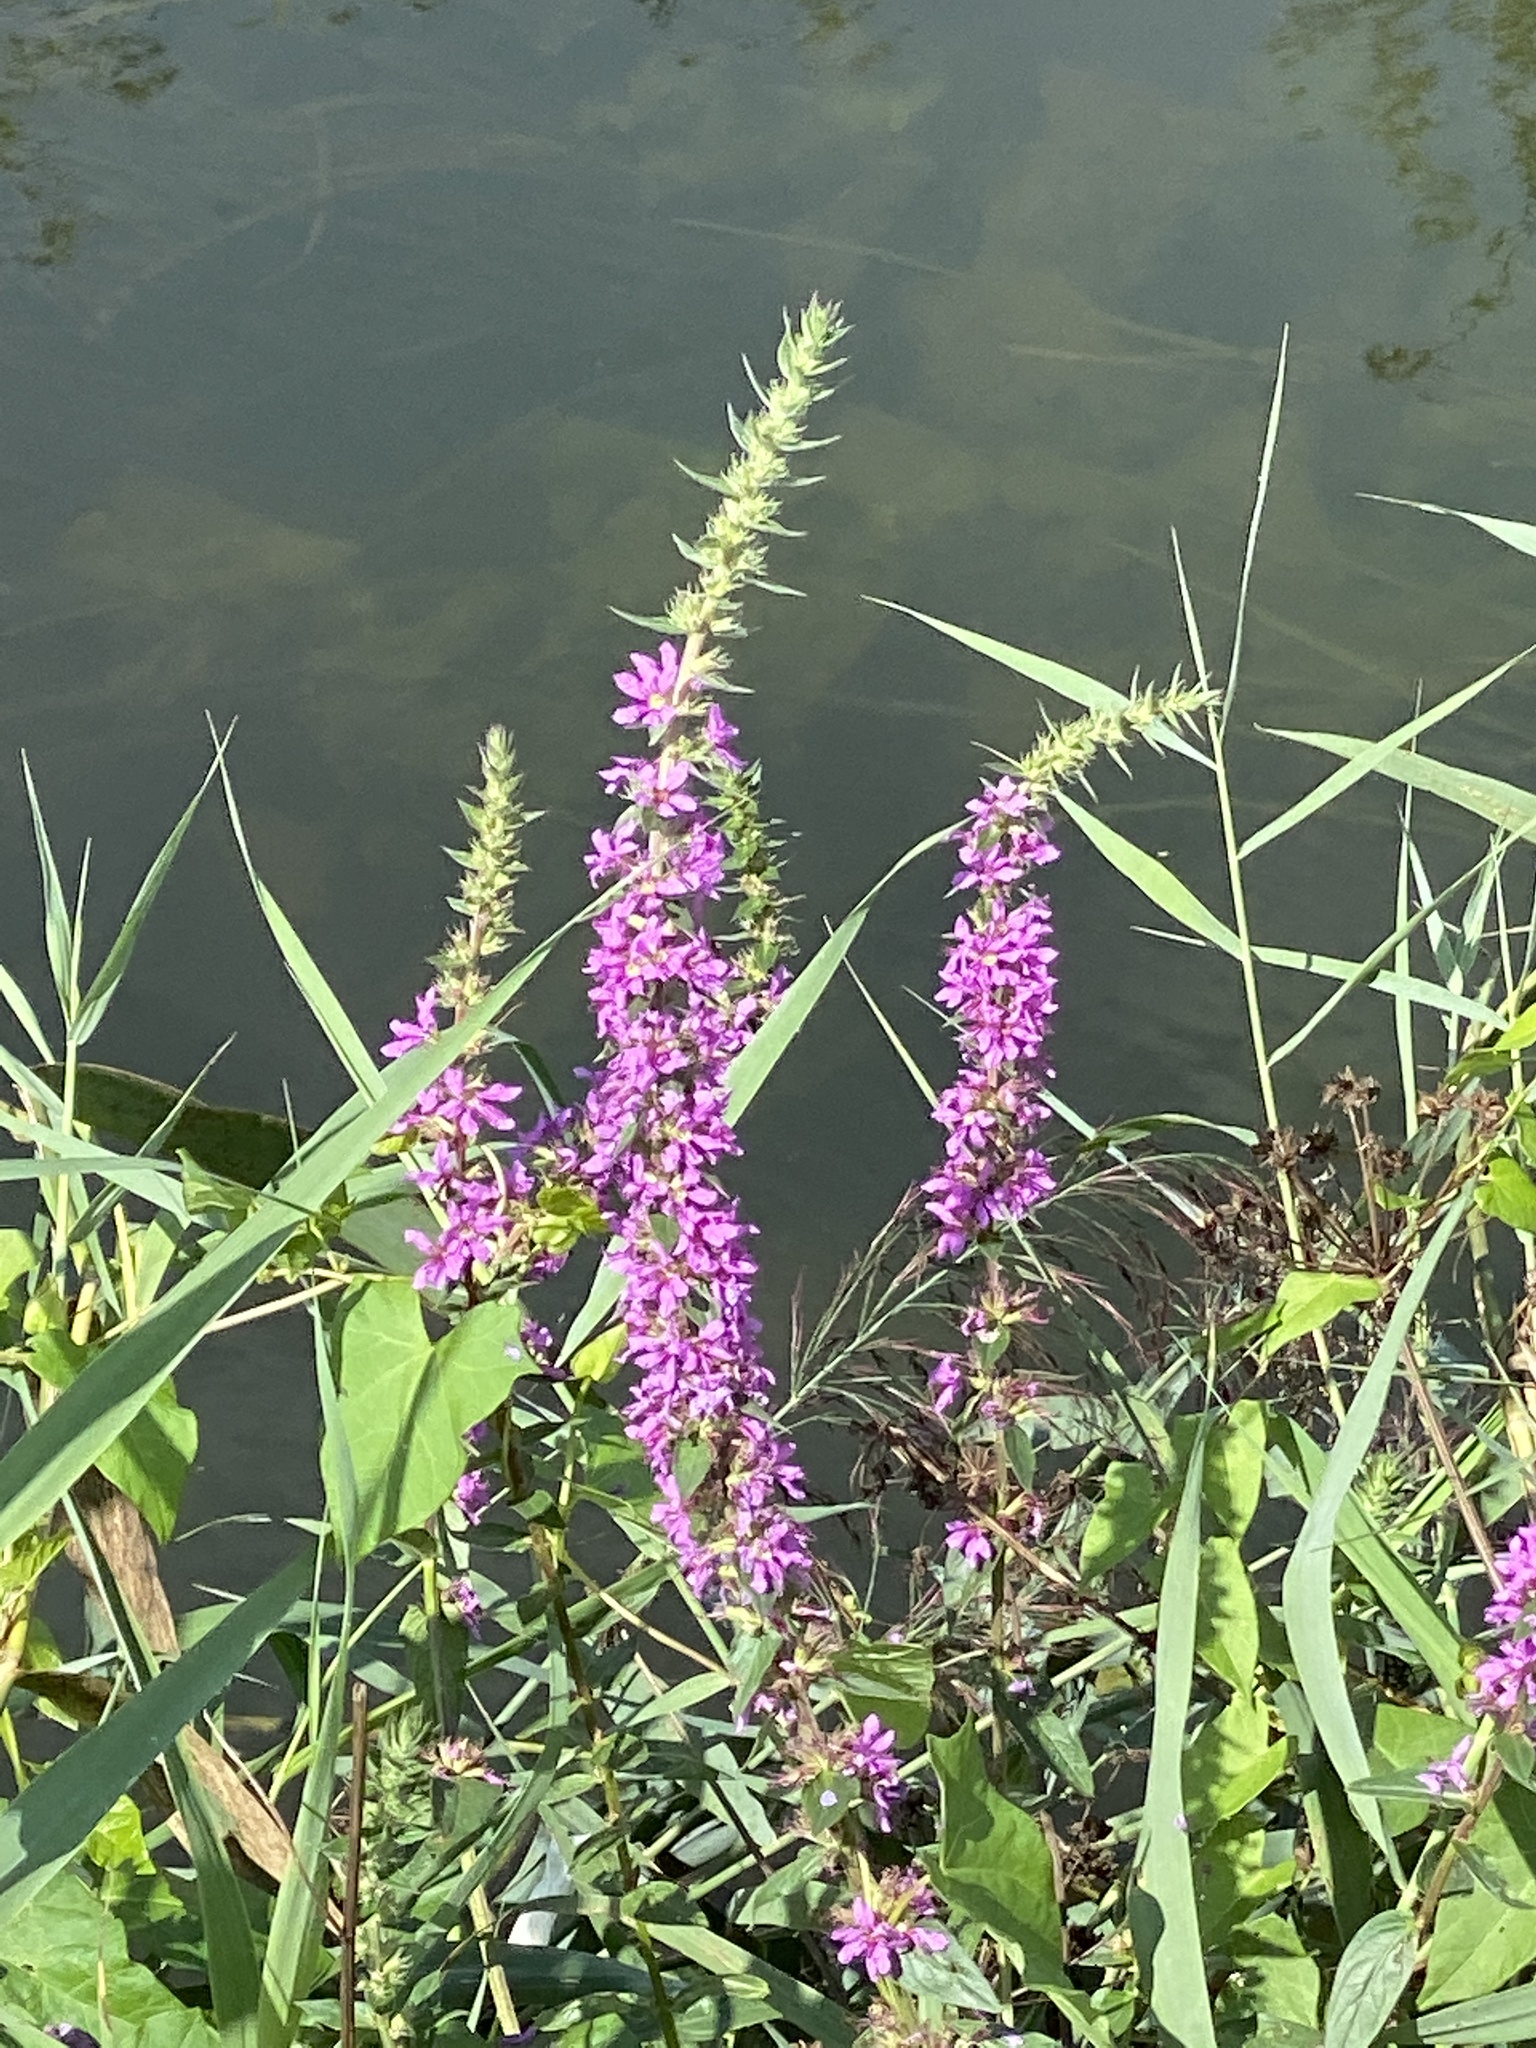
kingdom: Plantae
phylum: Tracheophyta
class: Magnoliopsida
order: Myrtales
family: Lythraceae
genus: Lythrum
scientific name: Lythrum salicaria
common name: Purple loosestrife
